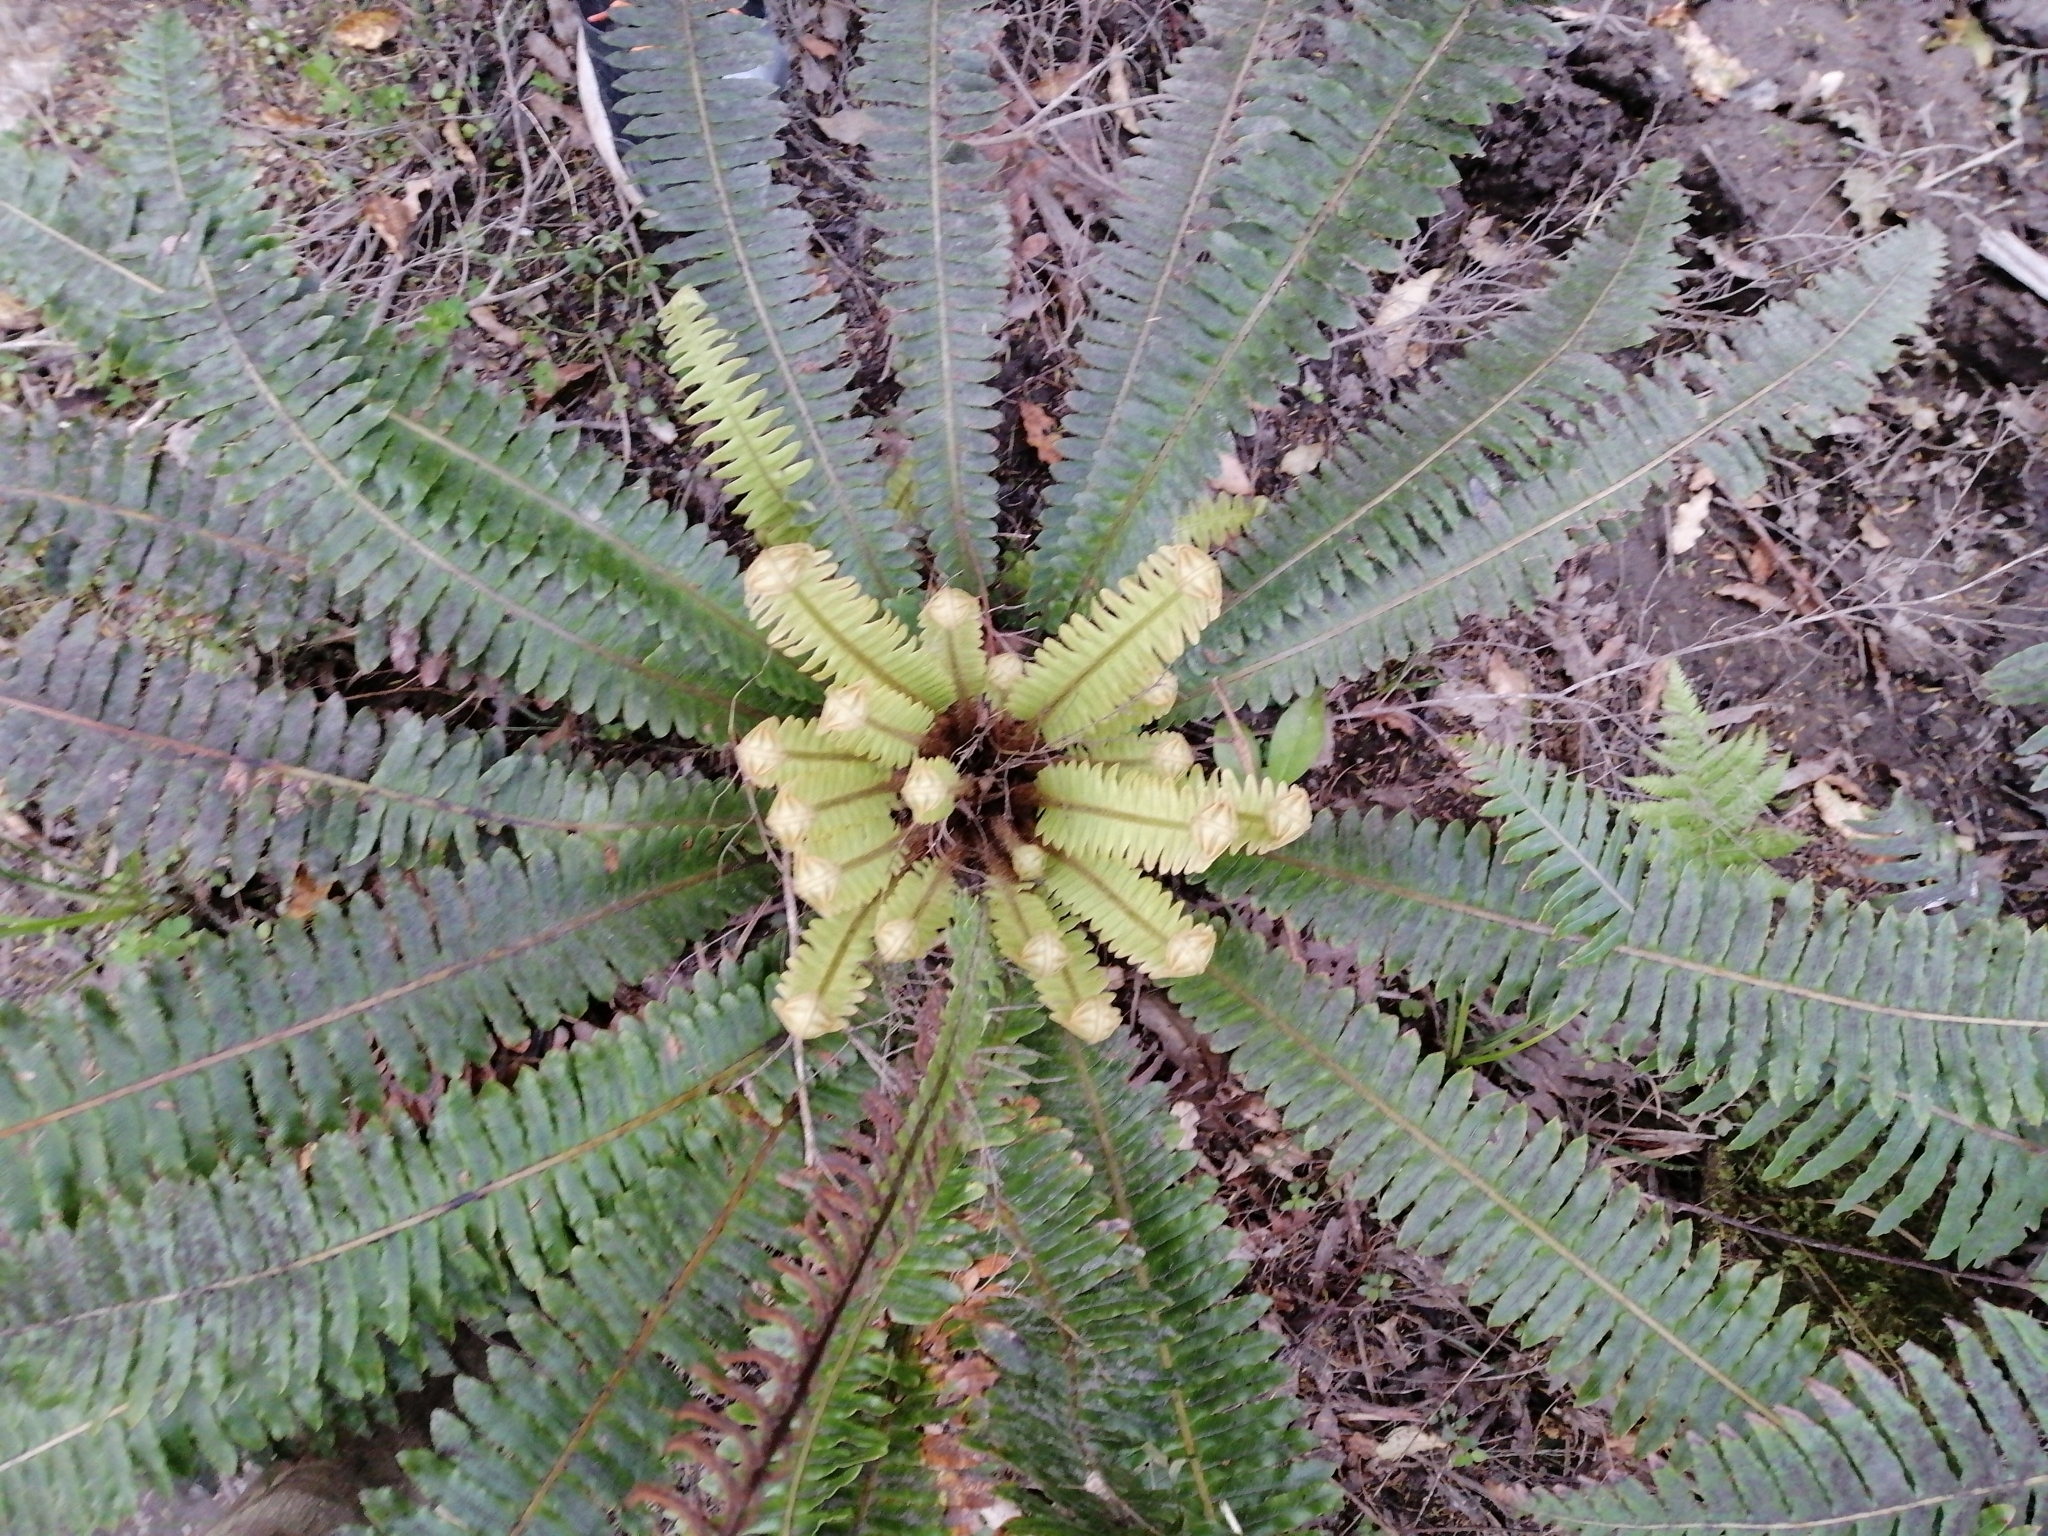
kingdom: Plantae
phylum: Tracheophyta
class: Polypodiopsida
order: Polypodiales
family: Blechnaceae
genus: Lomaria
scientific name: Lomaria discolor
